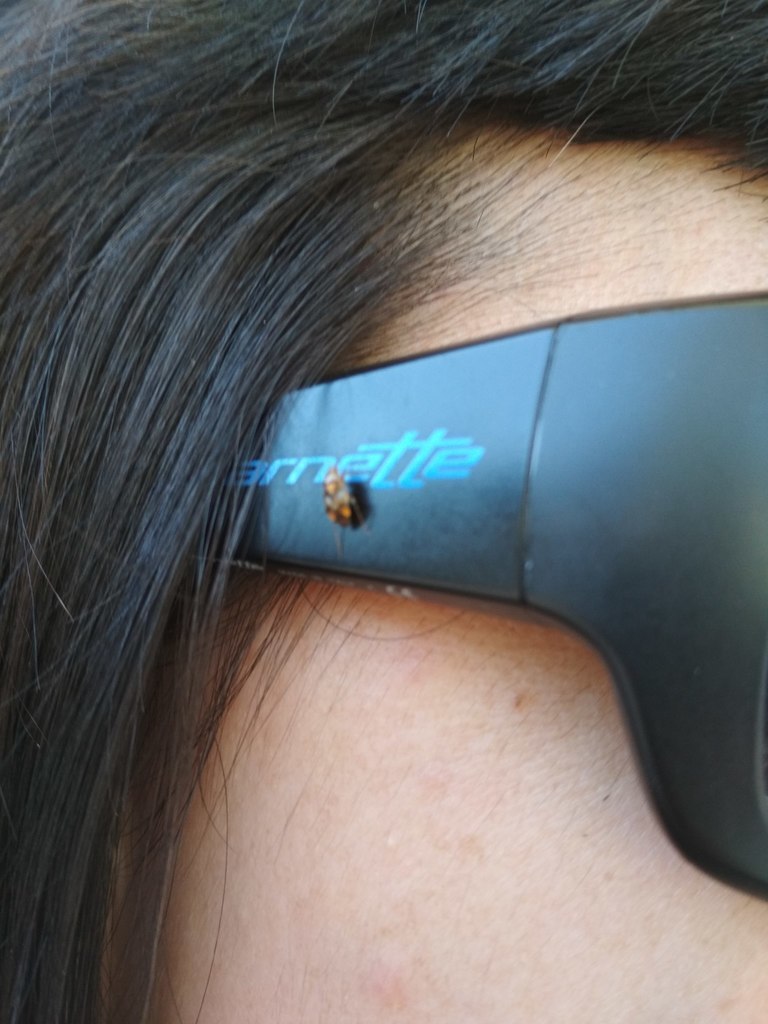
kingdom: Animalia
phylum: Arthropoda
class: Insecta
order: Hemiptera
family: Miridae
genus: Liocoris
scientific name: Liocoris tripustulatus
